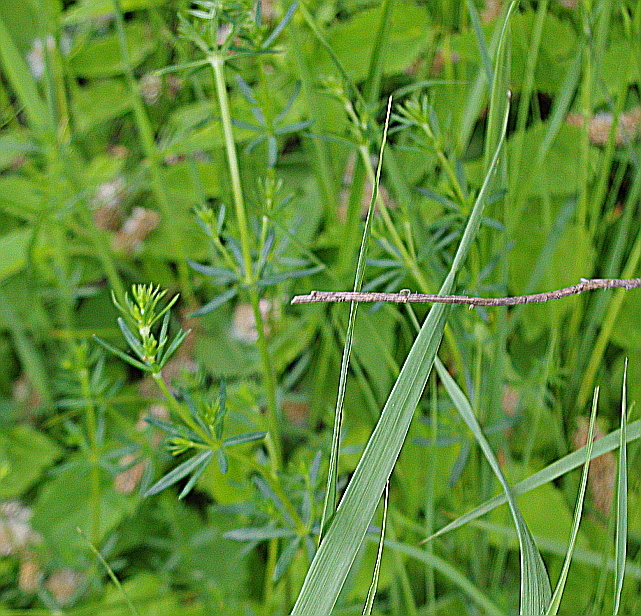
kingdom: Plantae
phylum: Tracheophyta
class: Magnoliopsida
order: Gentianales
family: Rubiaceae
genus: Galium
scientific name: Galium mollugo
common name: Hedge bedstraw
